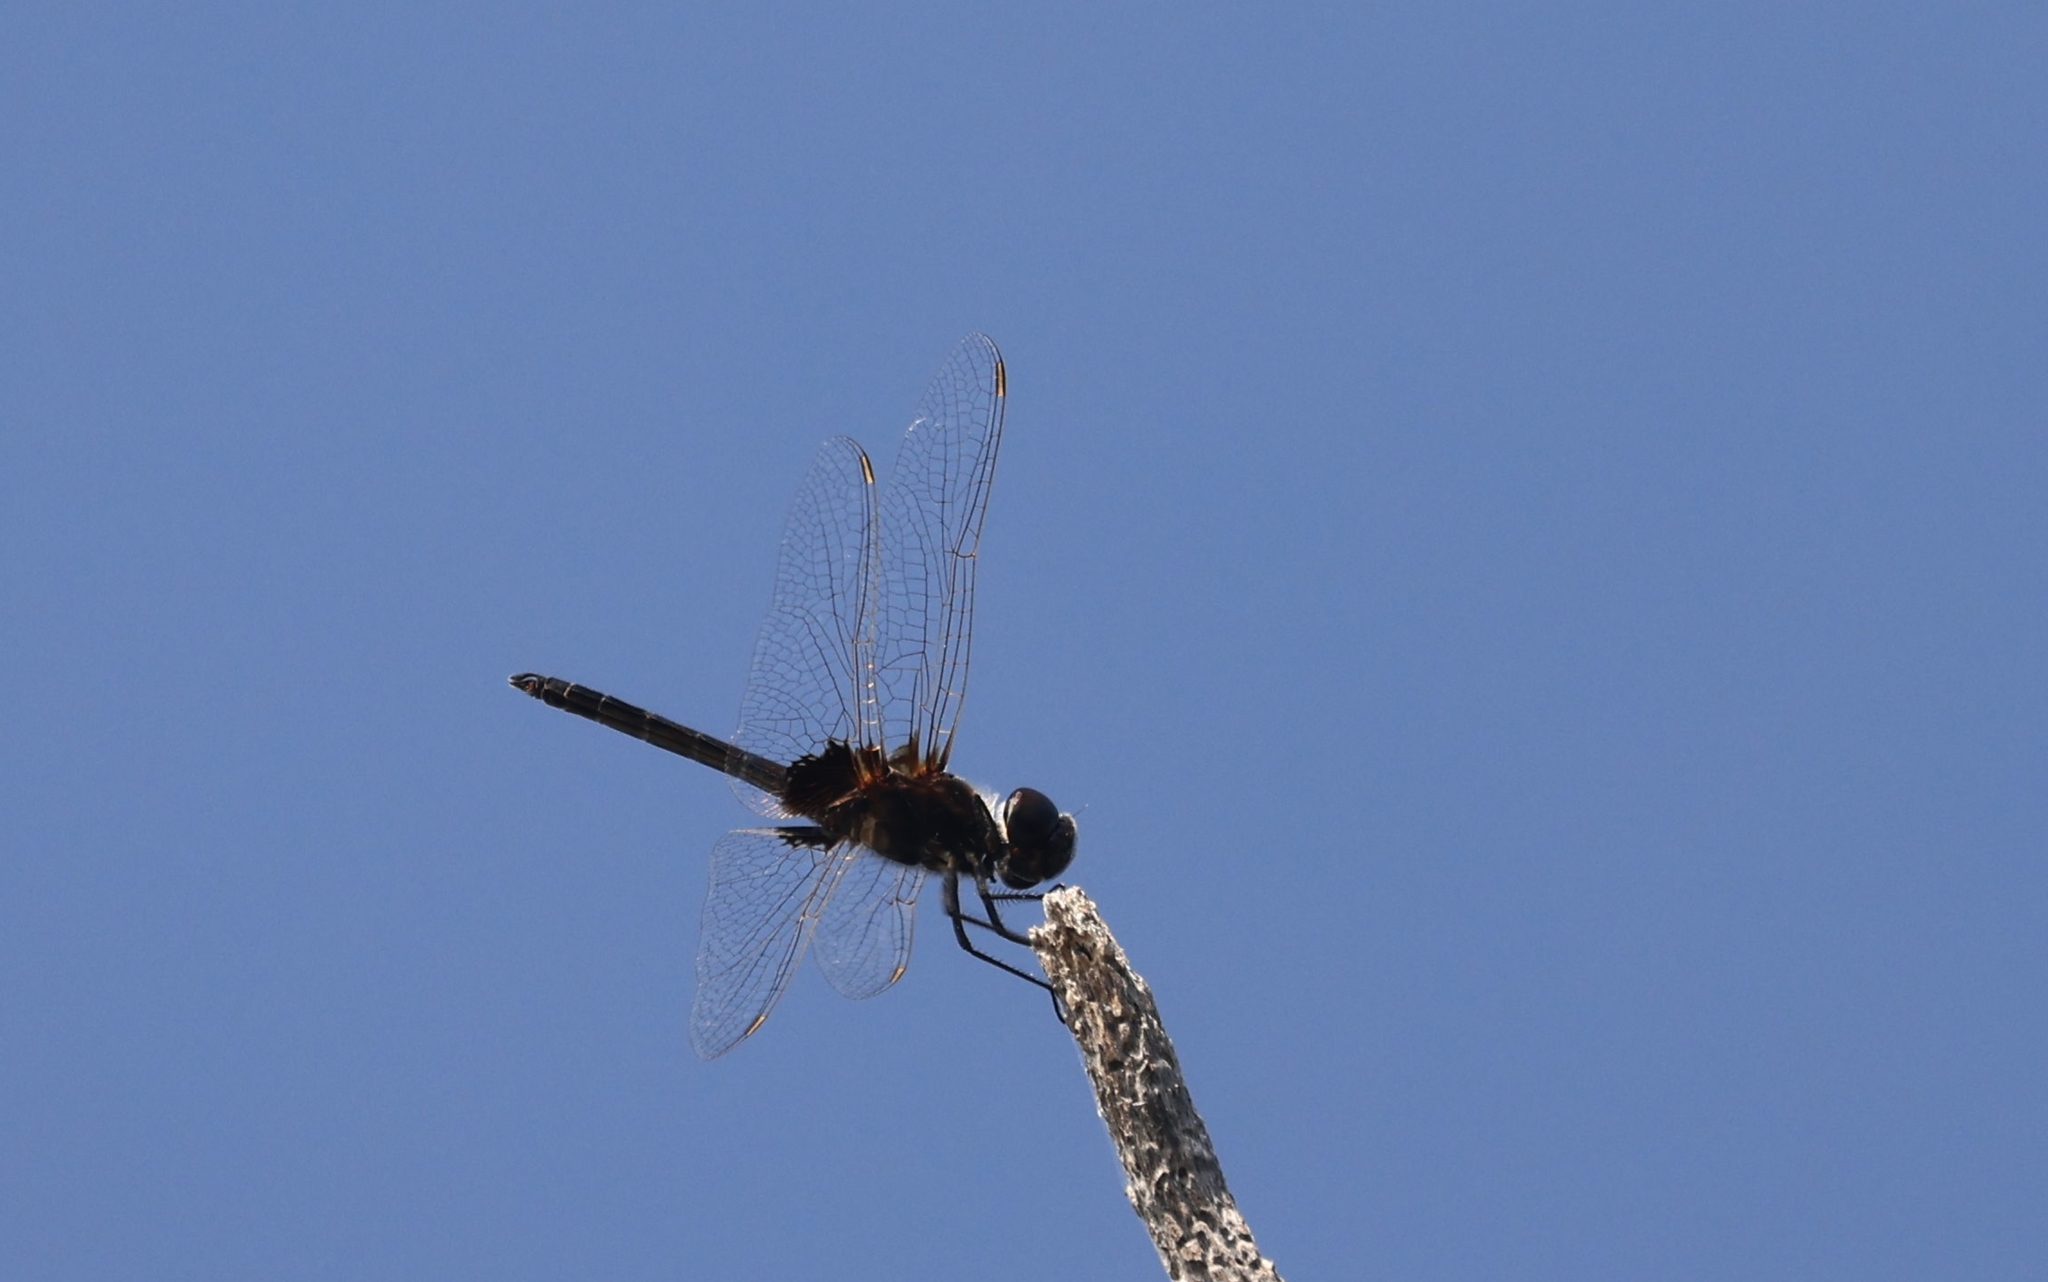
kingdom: Animalia
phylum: Arthropoda
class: Insecta
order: Odonata
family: Libellulidae
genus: Macrodiplax
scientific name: Macrodiplax balteata
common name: Marl pennant
